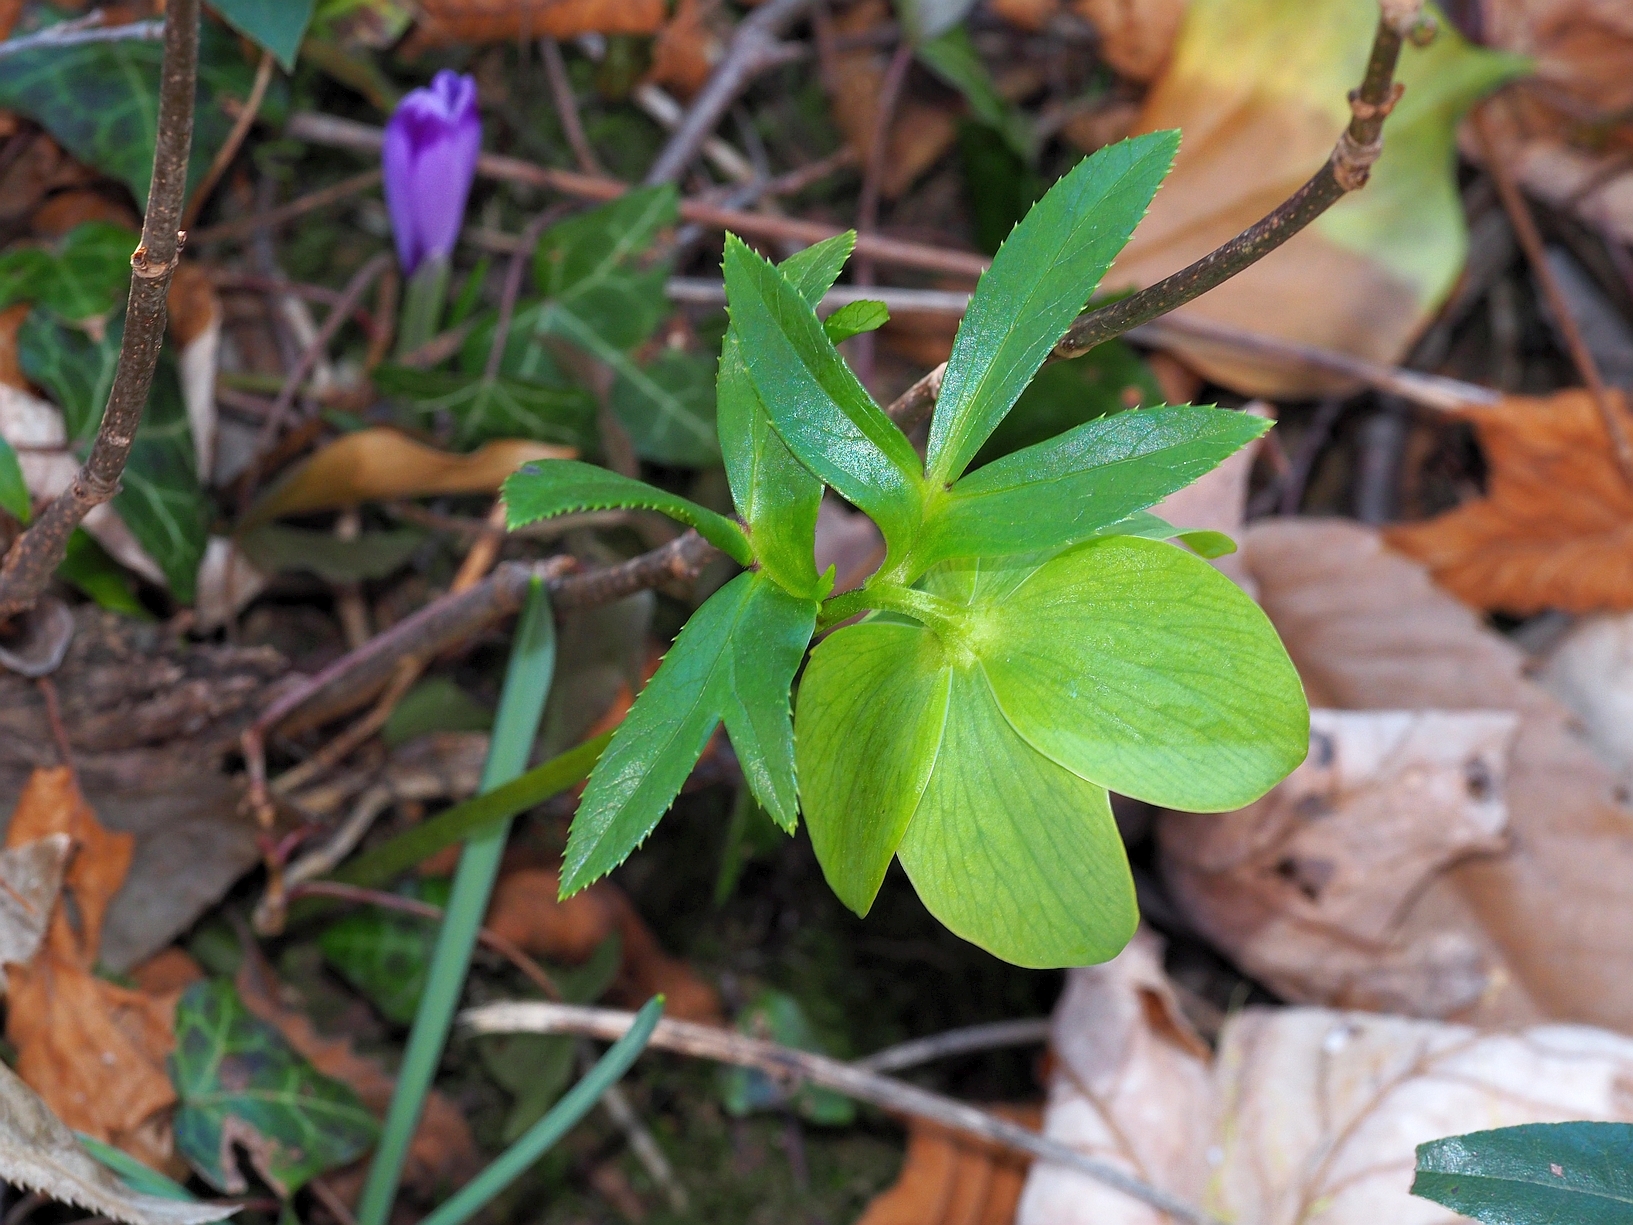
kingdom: Plantae
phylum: Tracheophyta
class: Magnoliopsida
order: Ranunculales
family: Ranunculaceae
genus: Helleborus
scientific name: Helleborus viridis
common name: Green hellebore
